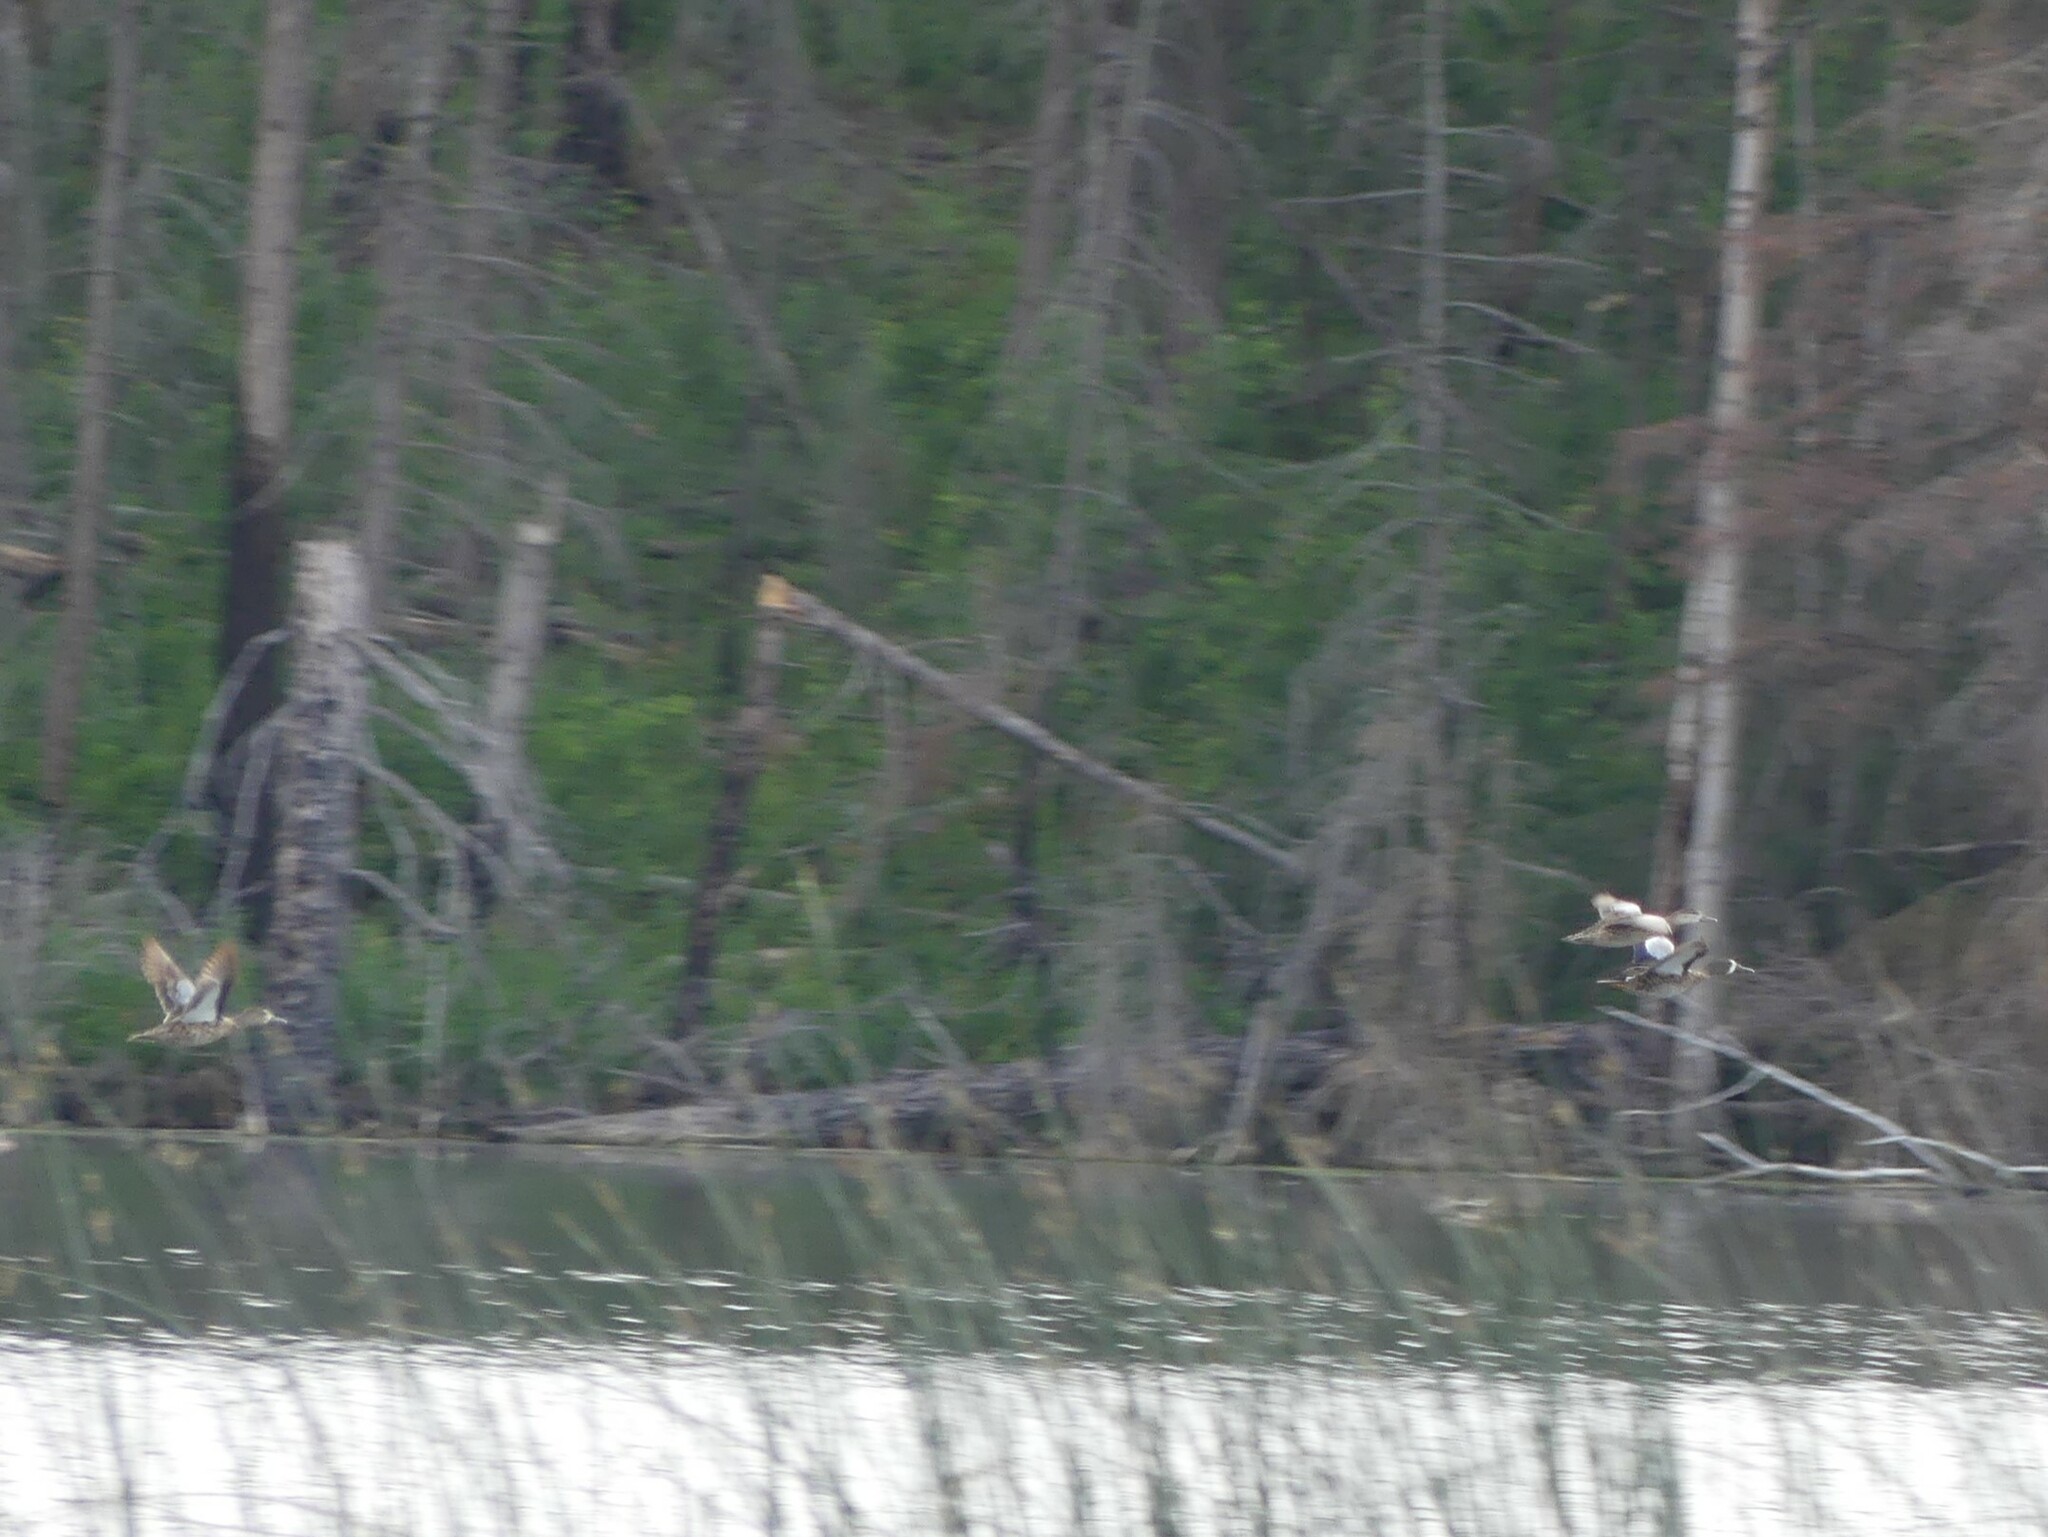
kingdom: Animalia
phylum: Chordata
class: Aves
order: Anseriformes
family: Anatidae
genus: Spatula
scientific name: Spatula discors
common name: Blue-winged teal
